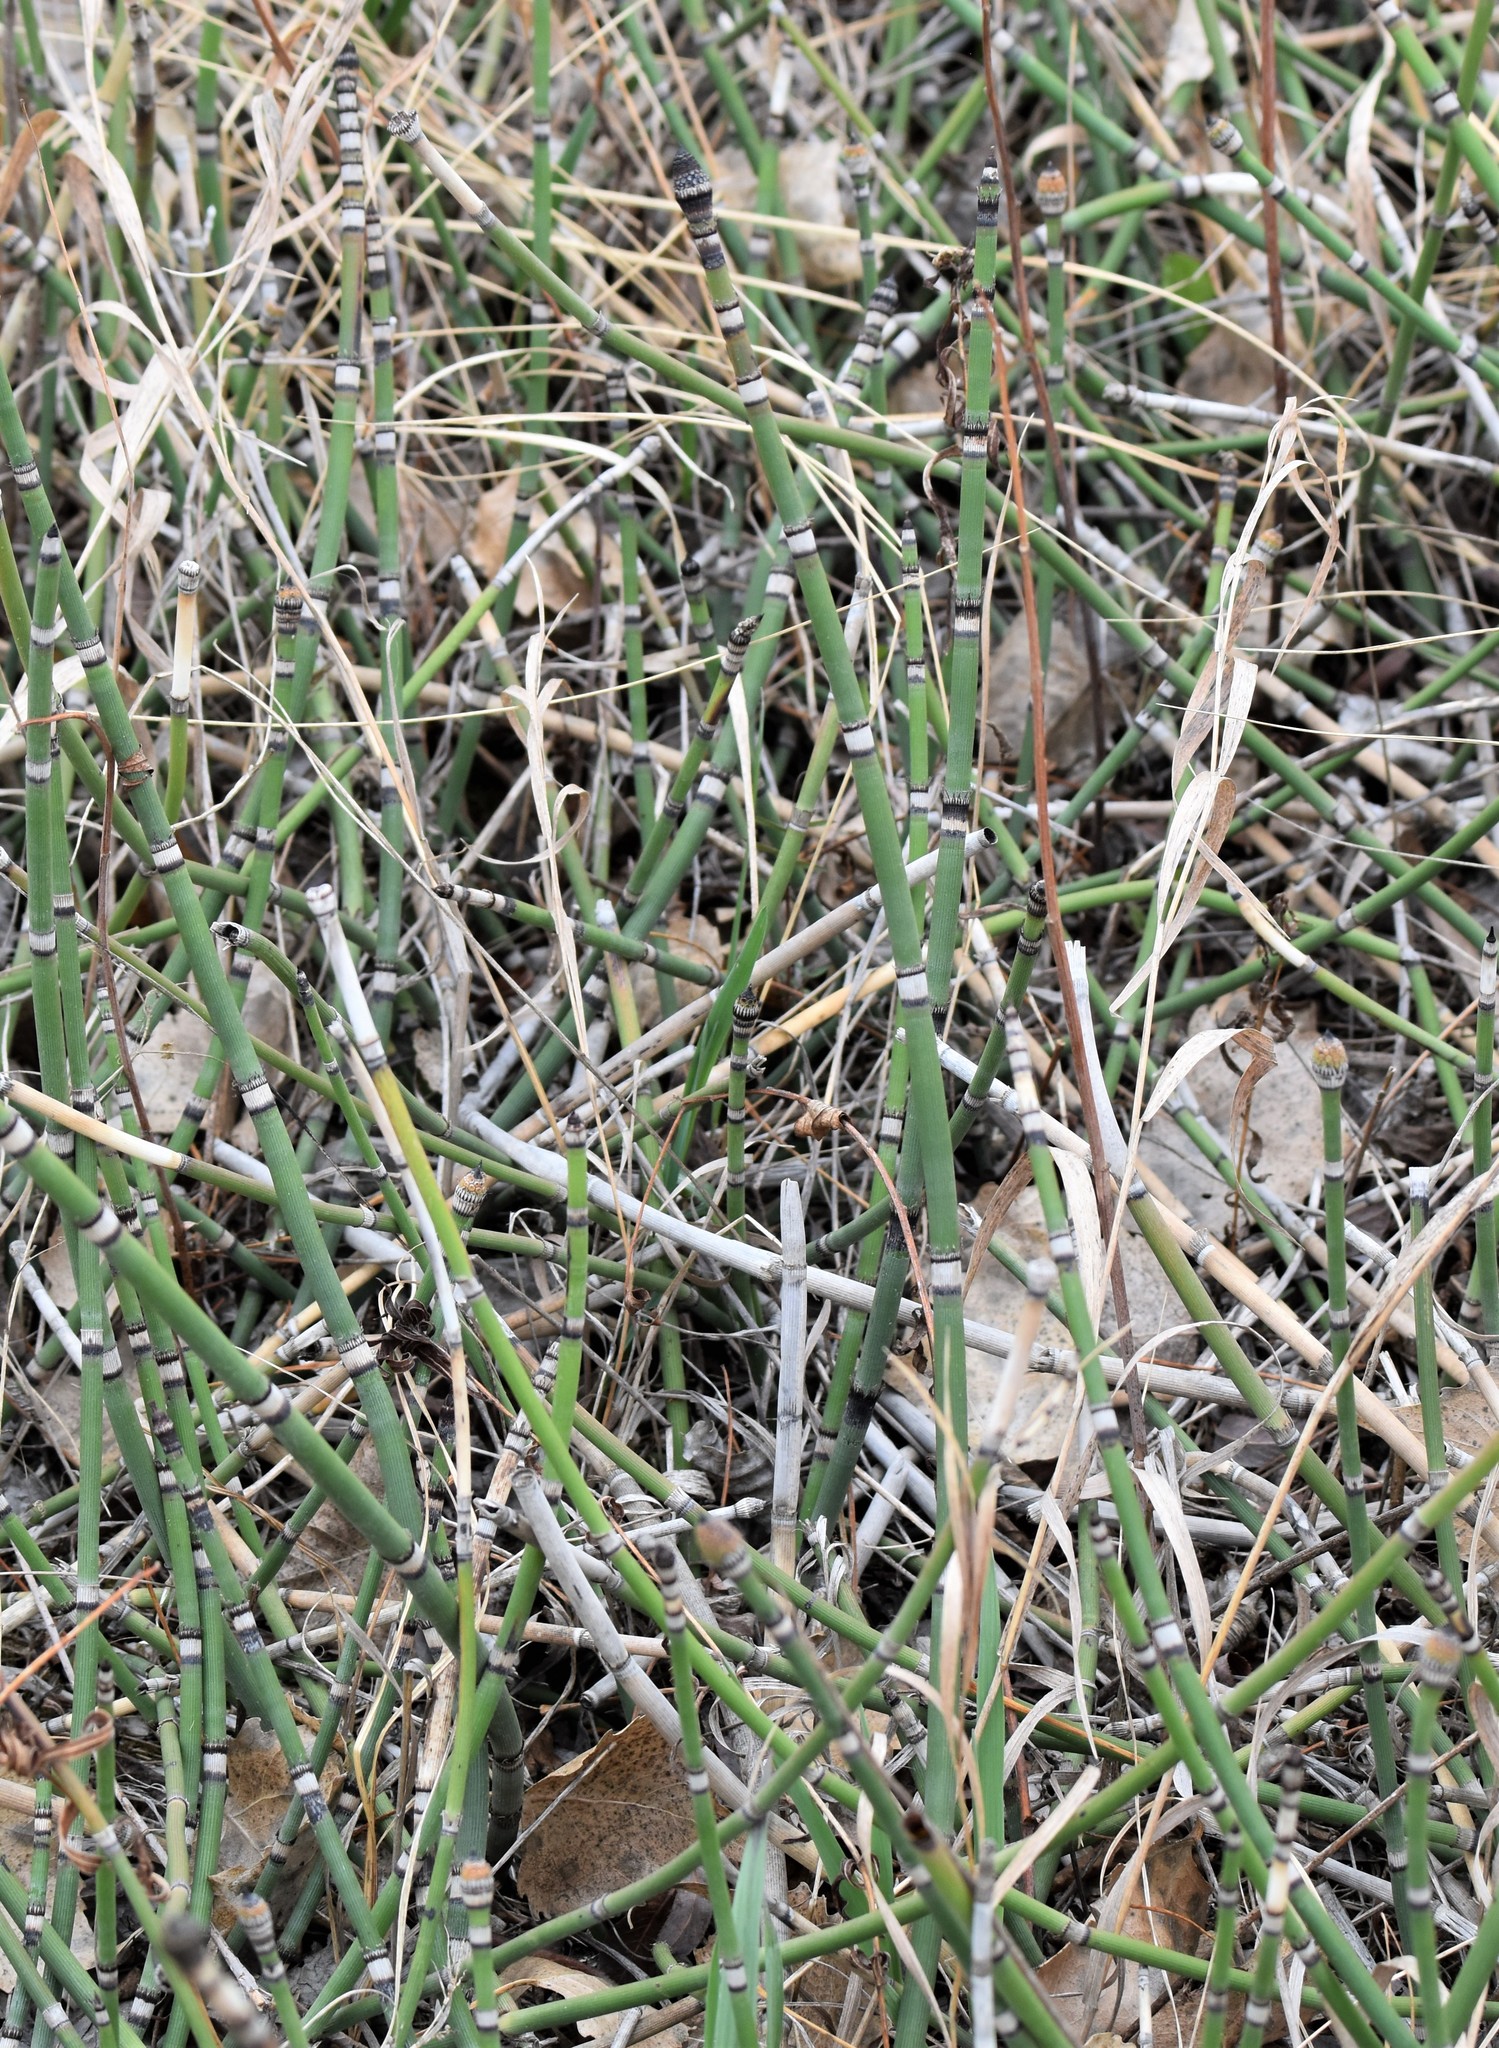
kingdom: Plantae
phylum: Tracheophyta
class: Polypodiopsida
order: Equisetales
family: Equisetaceae
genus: Equisetum
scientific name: Equisetum hyemale
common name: Rough horsetail
